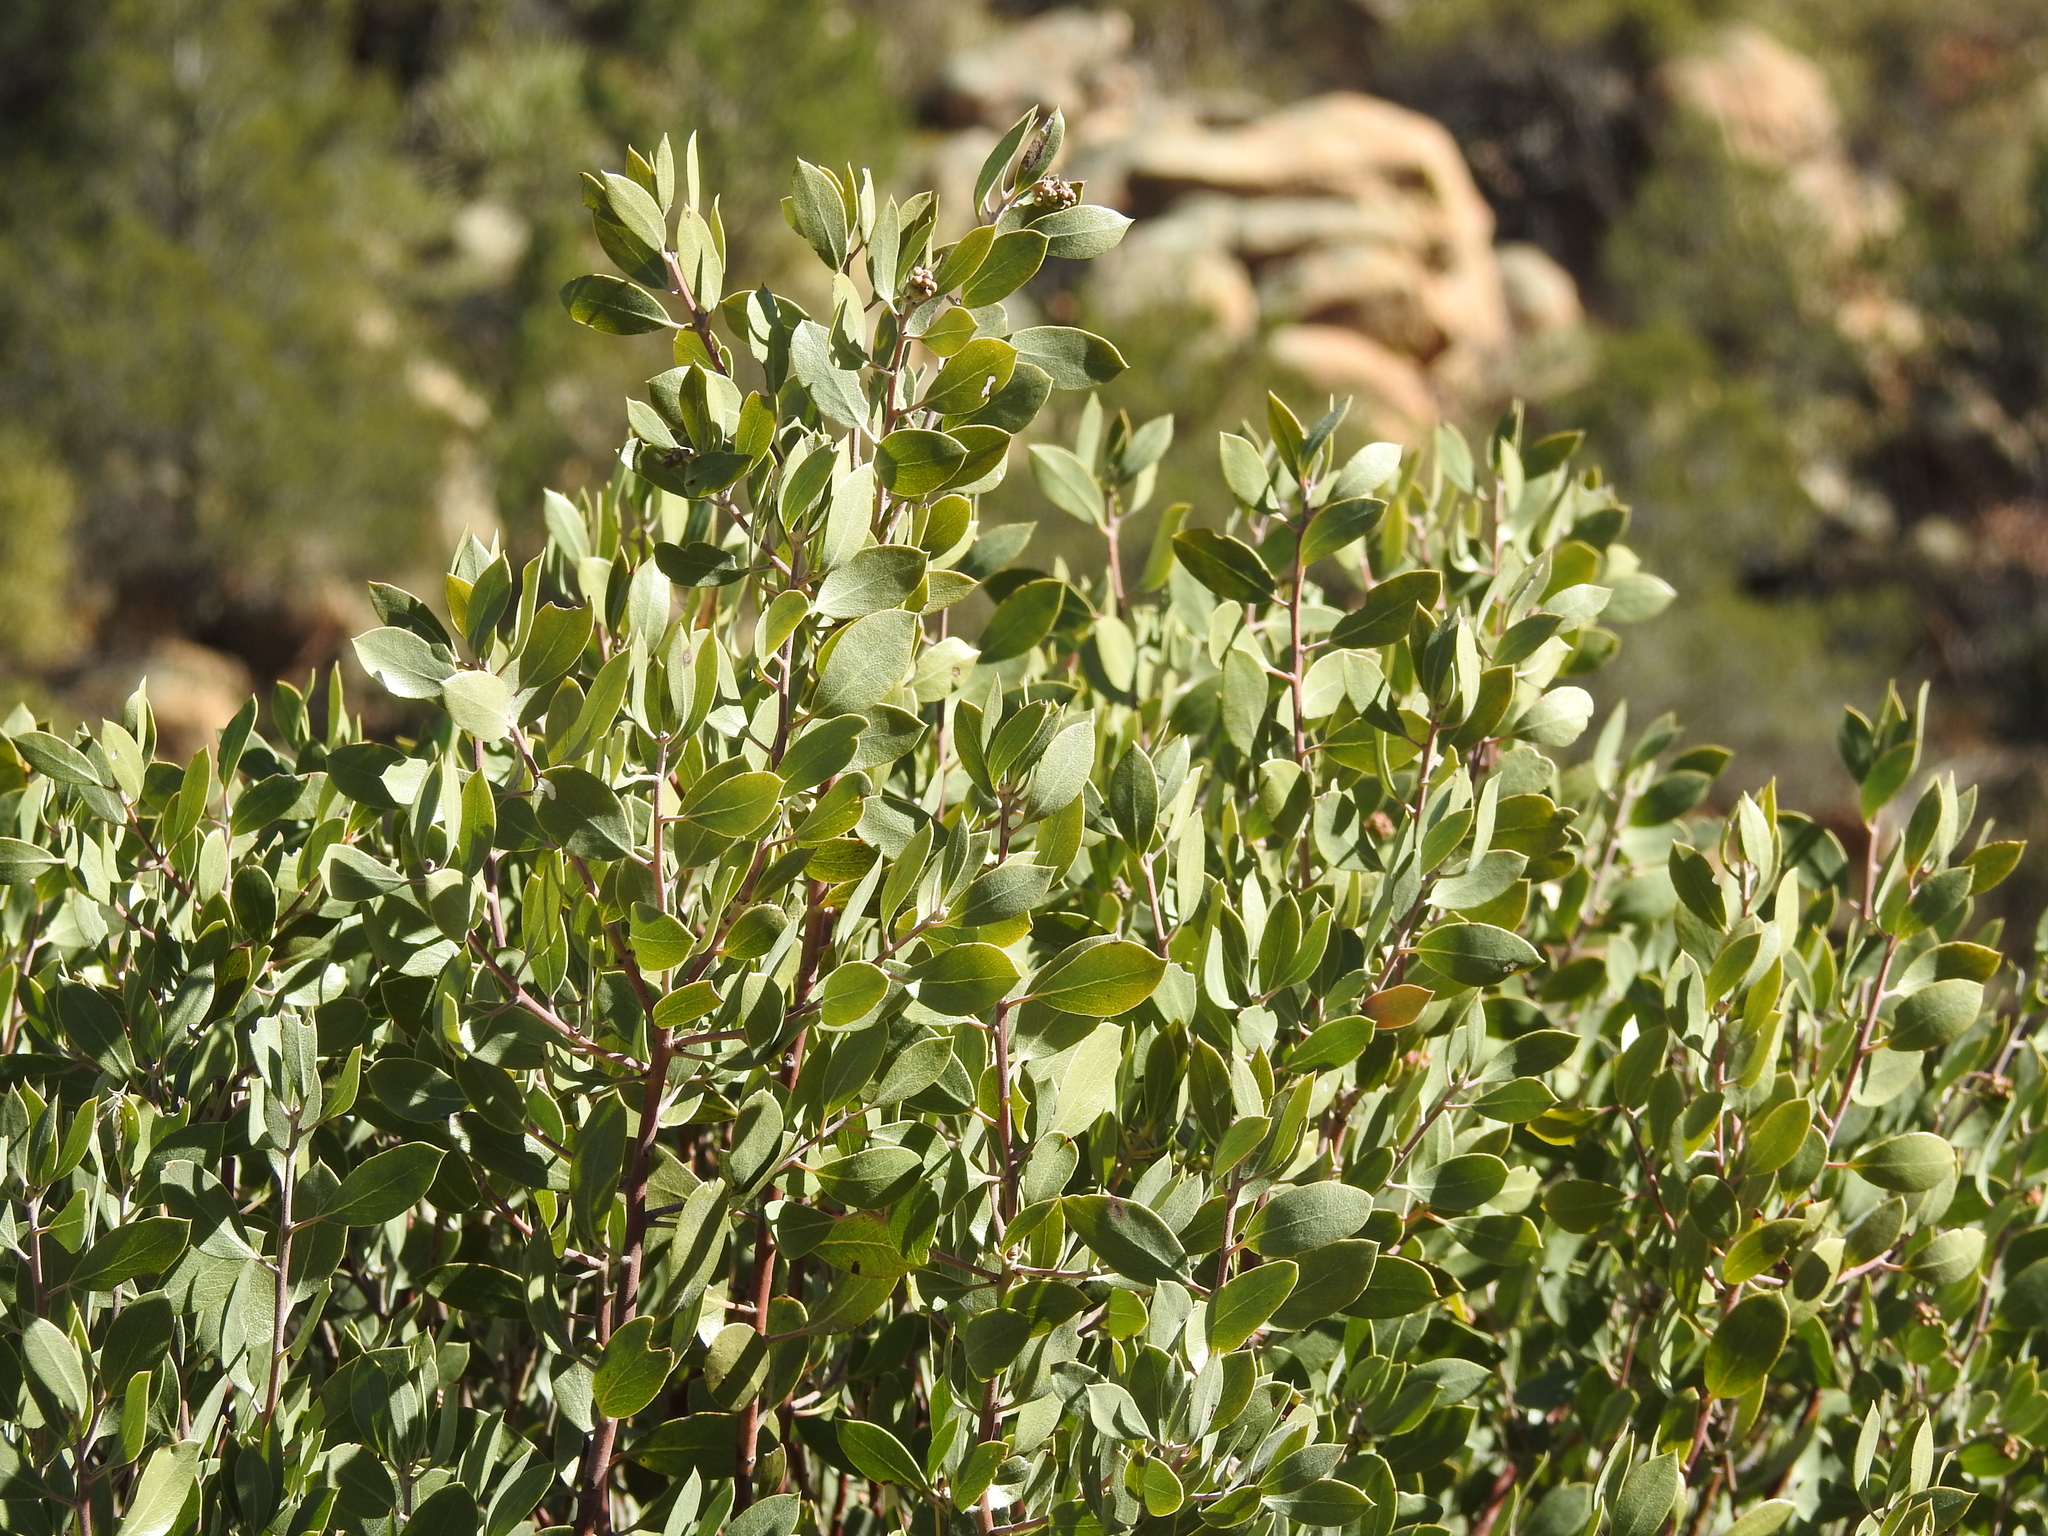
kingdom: Plantae
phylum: Tracheophyta
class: Magnoliopsida
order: Ericales
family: Ericaceae
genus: Arctostaphylos
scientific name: Arctostaphylos pungens
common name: Mexican manzanita
